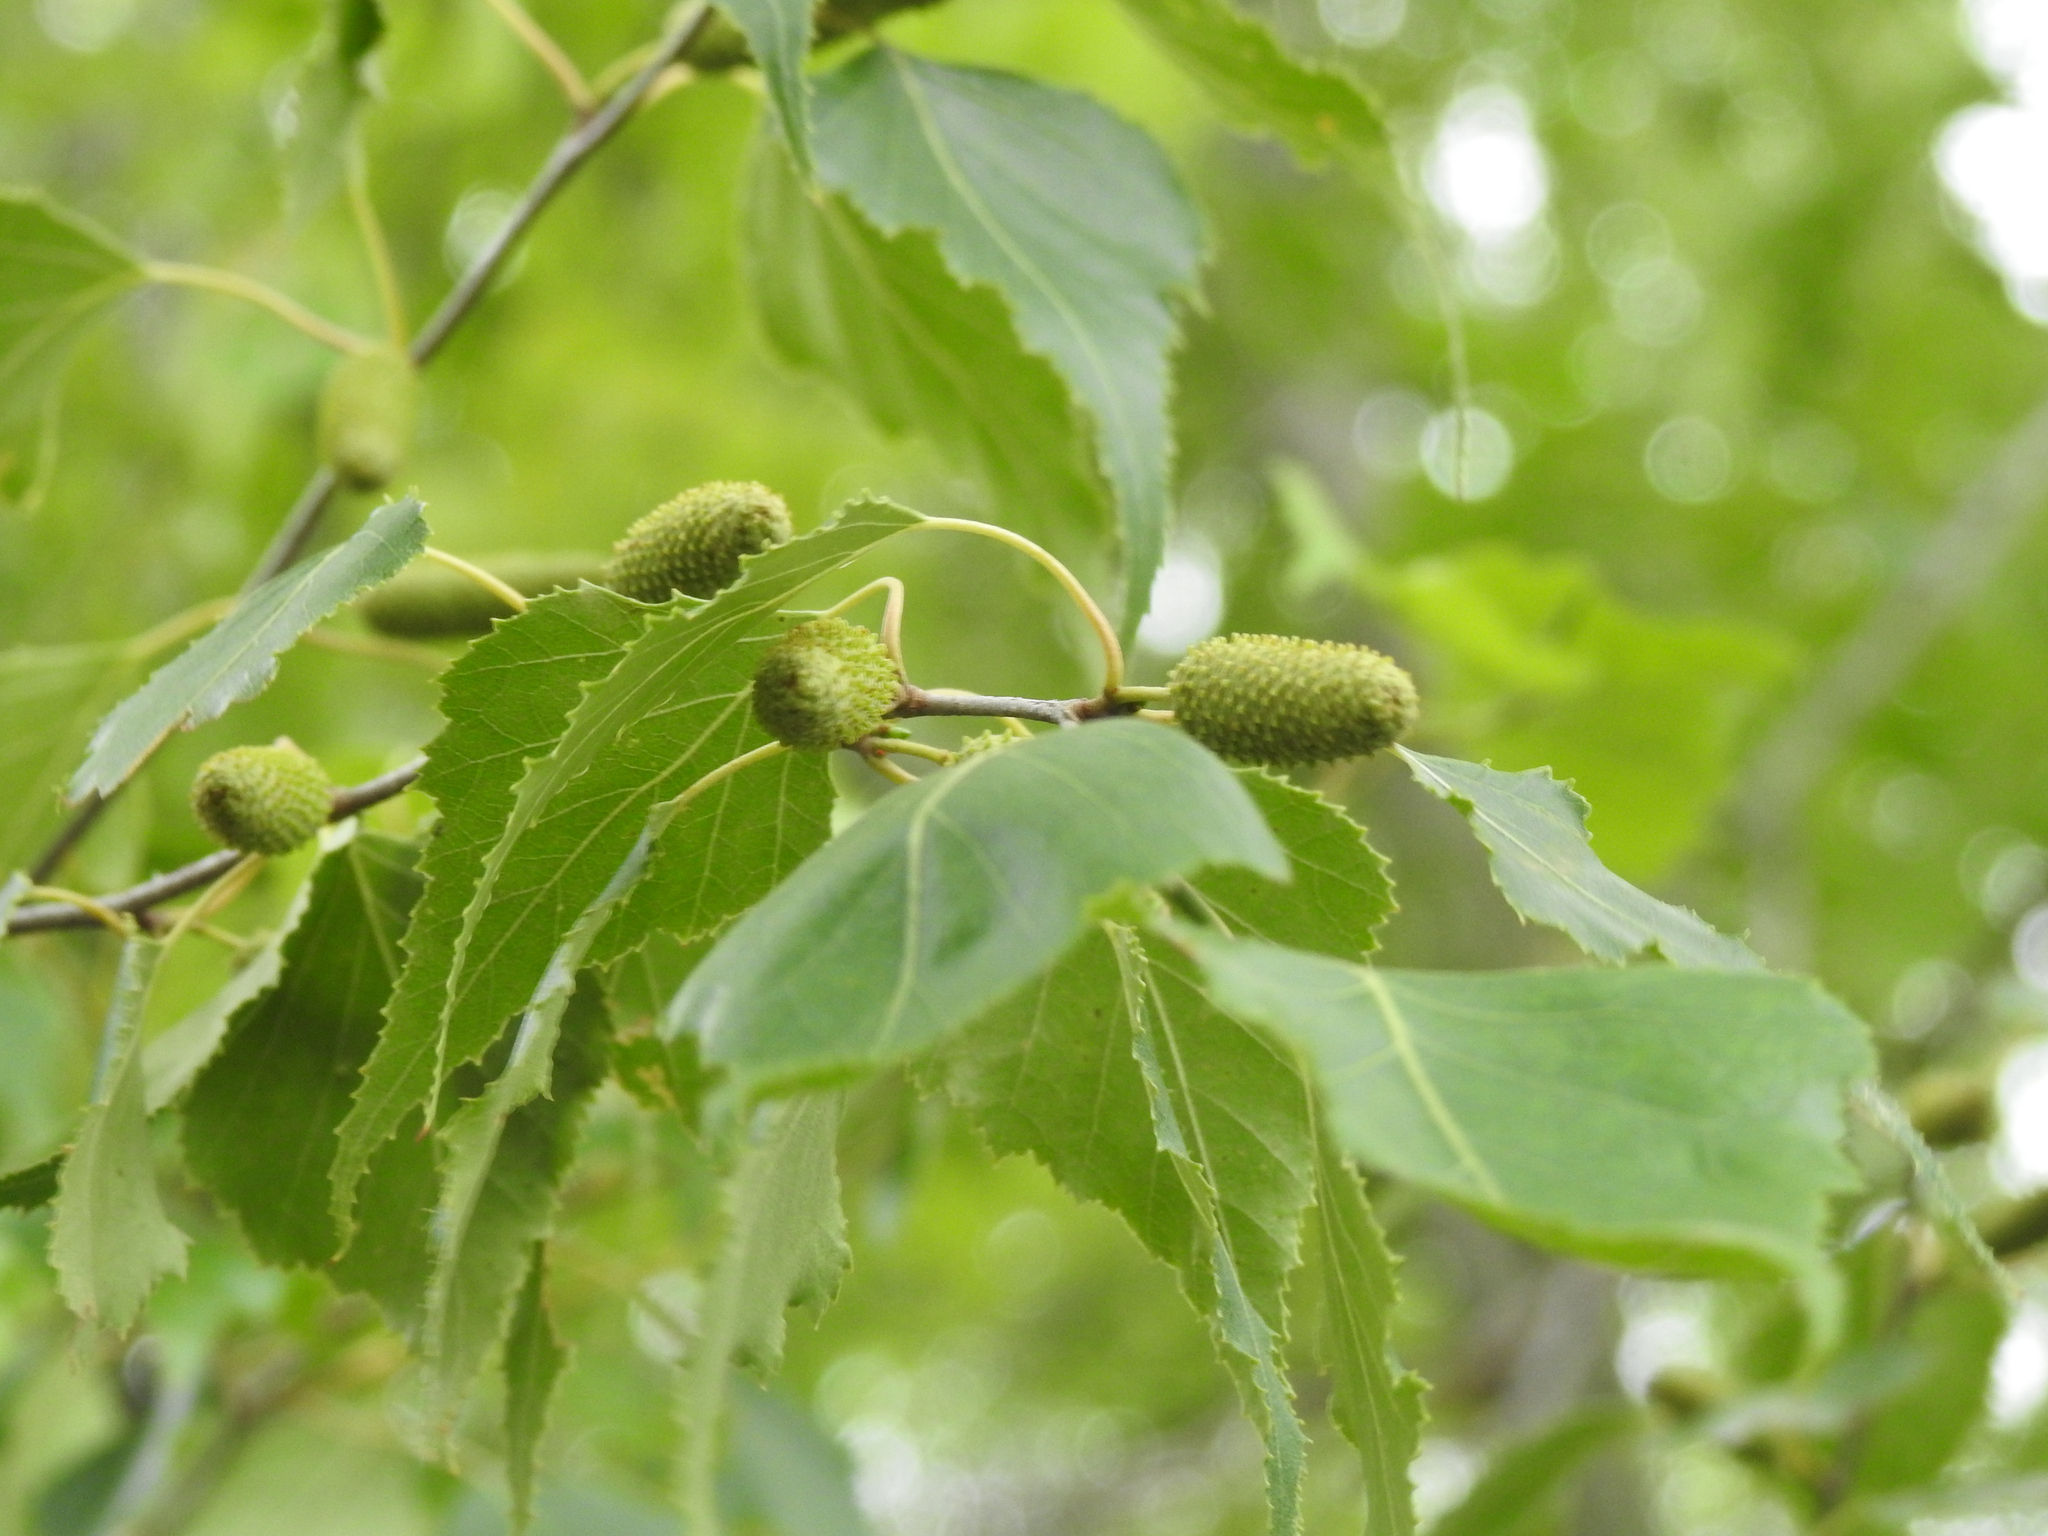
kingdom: Plantae
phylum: Tracheophyta
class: Magnoliopsida
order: Fagales
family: Betulaceae
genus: Betula
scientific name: Betula populifolia
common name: Fire birch
